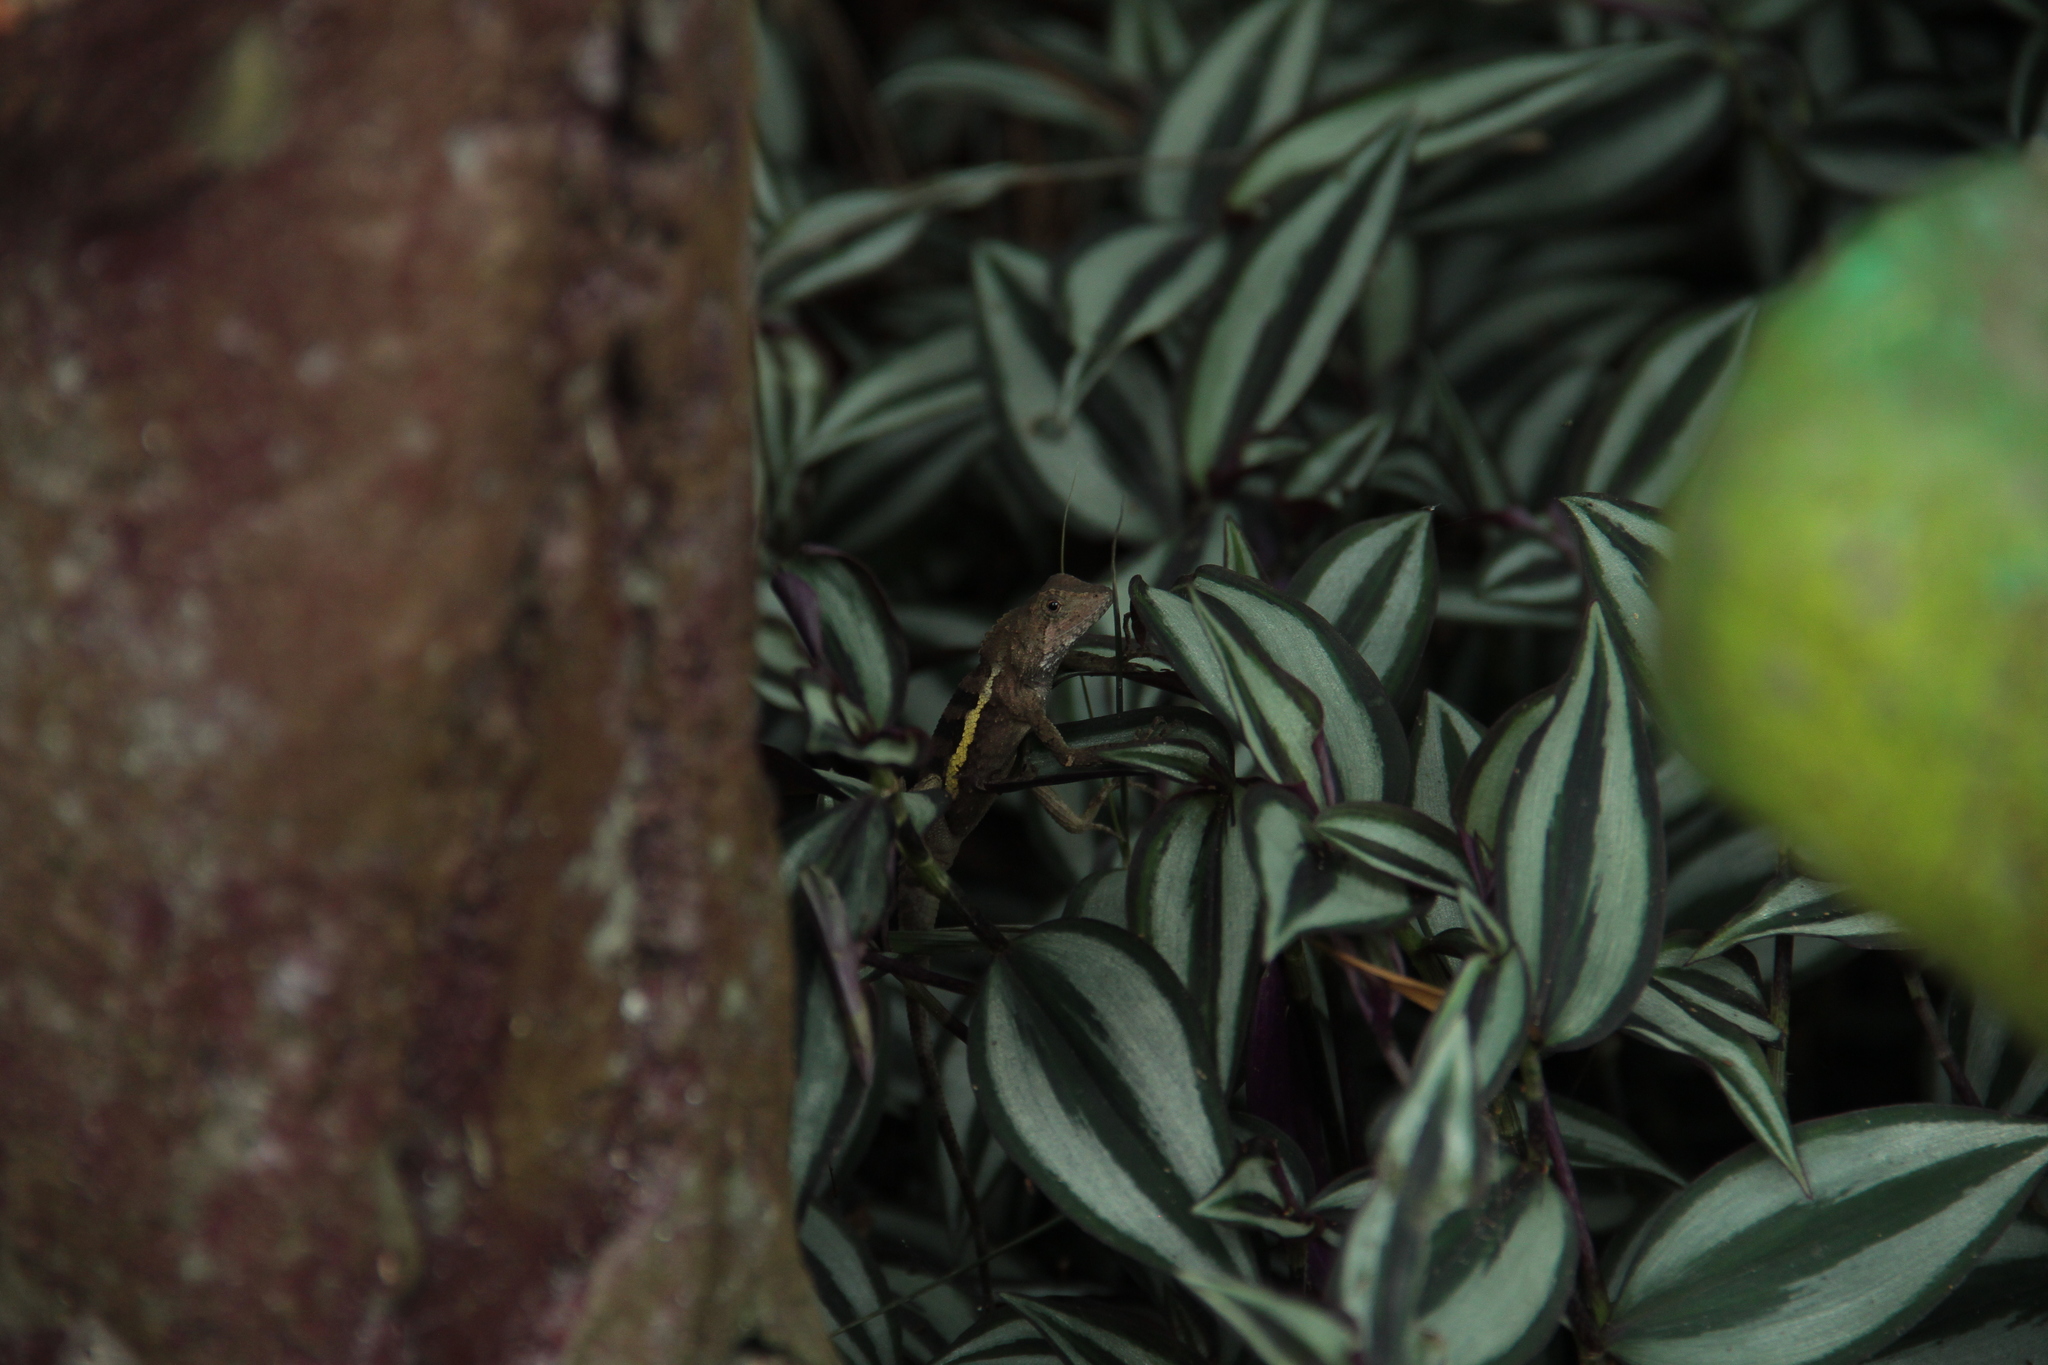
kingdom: Animalia
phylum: Chordata
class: Squamata
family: Agamidae
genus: Diploderma
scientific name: Diploderma swinhonis
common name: Taiwan japalure
